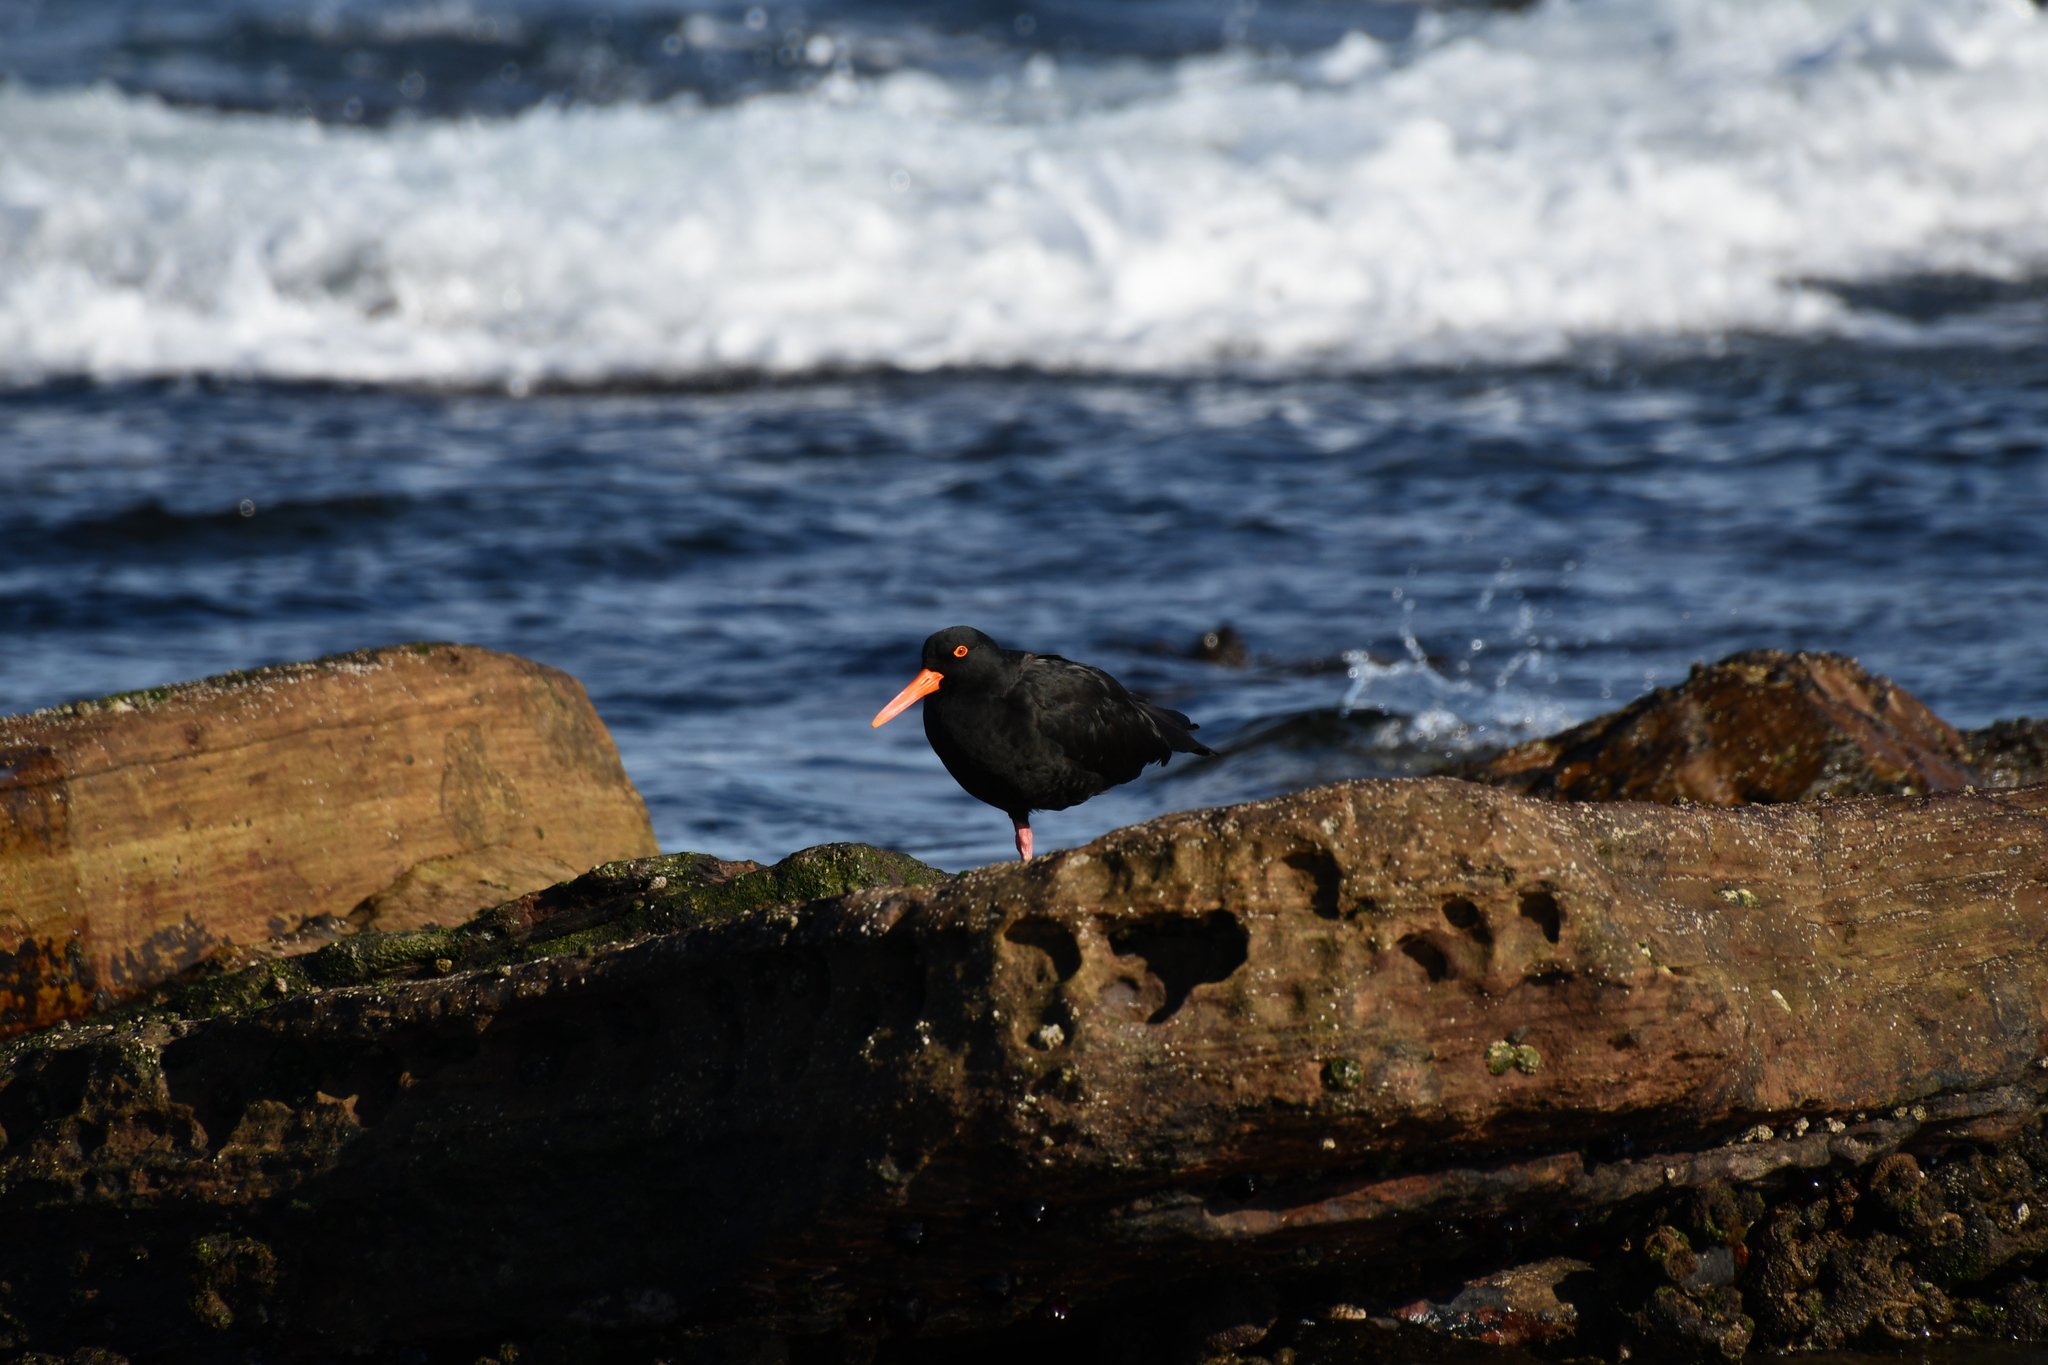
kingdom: Animalia
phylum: Chordata
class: Aves
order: Charadriiformes
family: Haematopodidae
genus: Haematopus
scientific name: Haematopus fuliginosus
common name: Sooty oystercatcher
